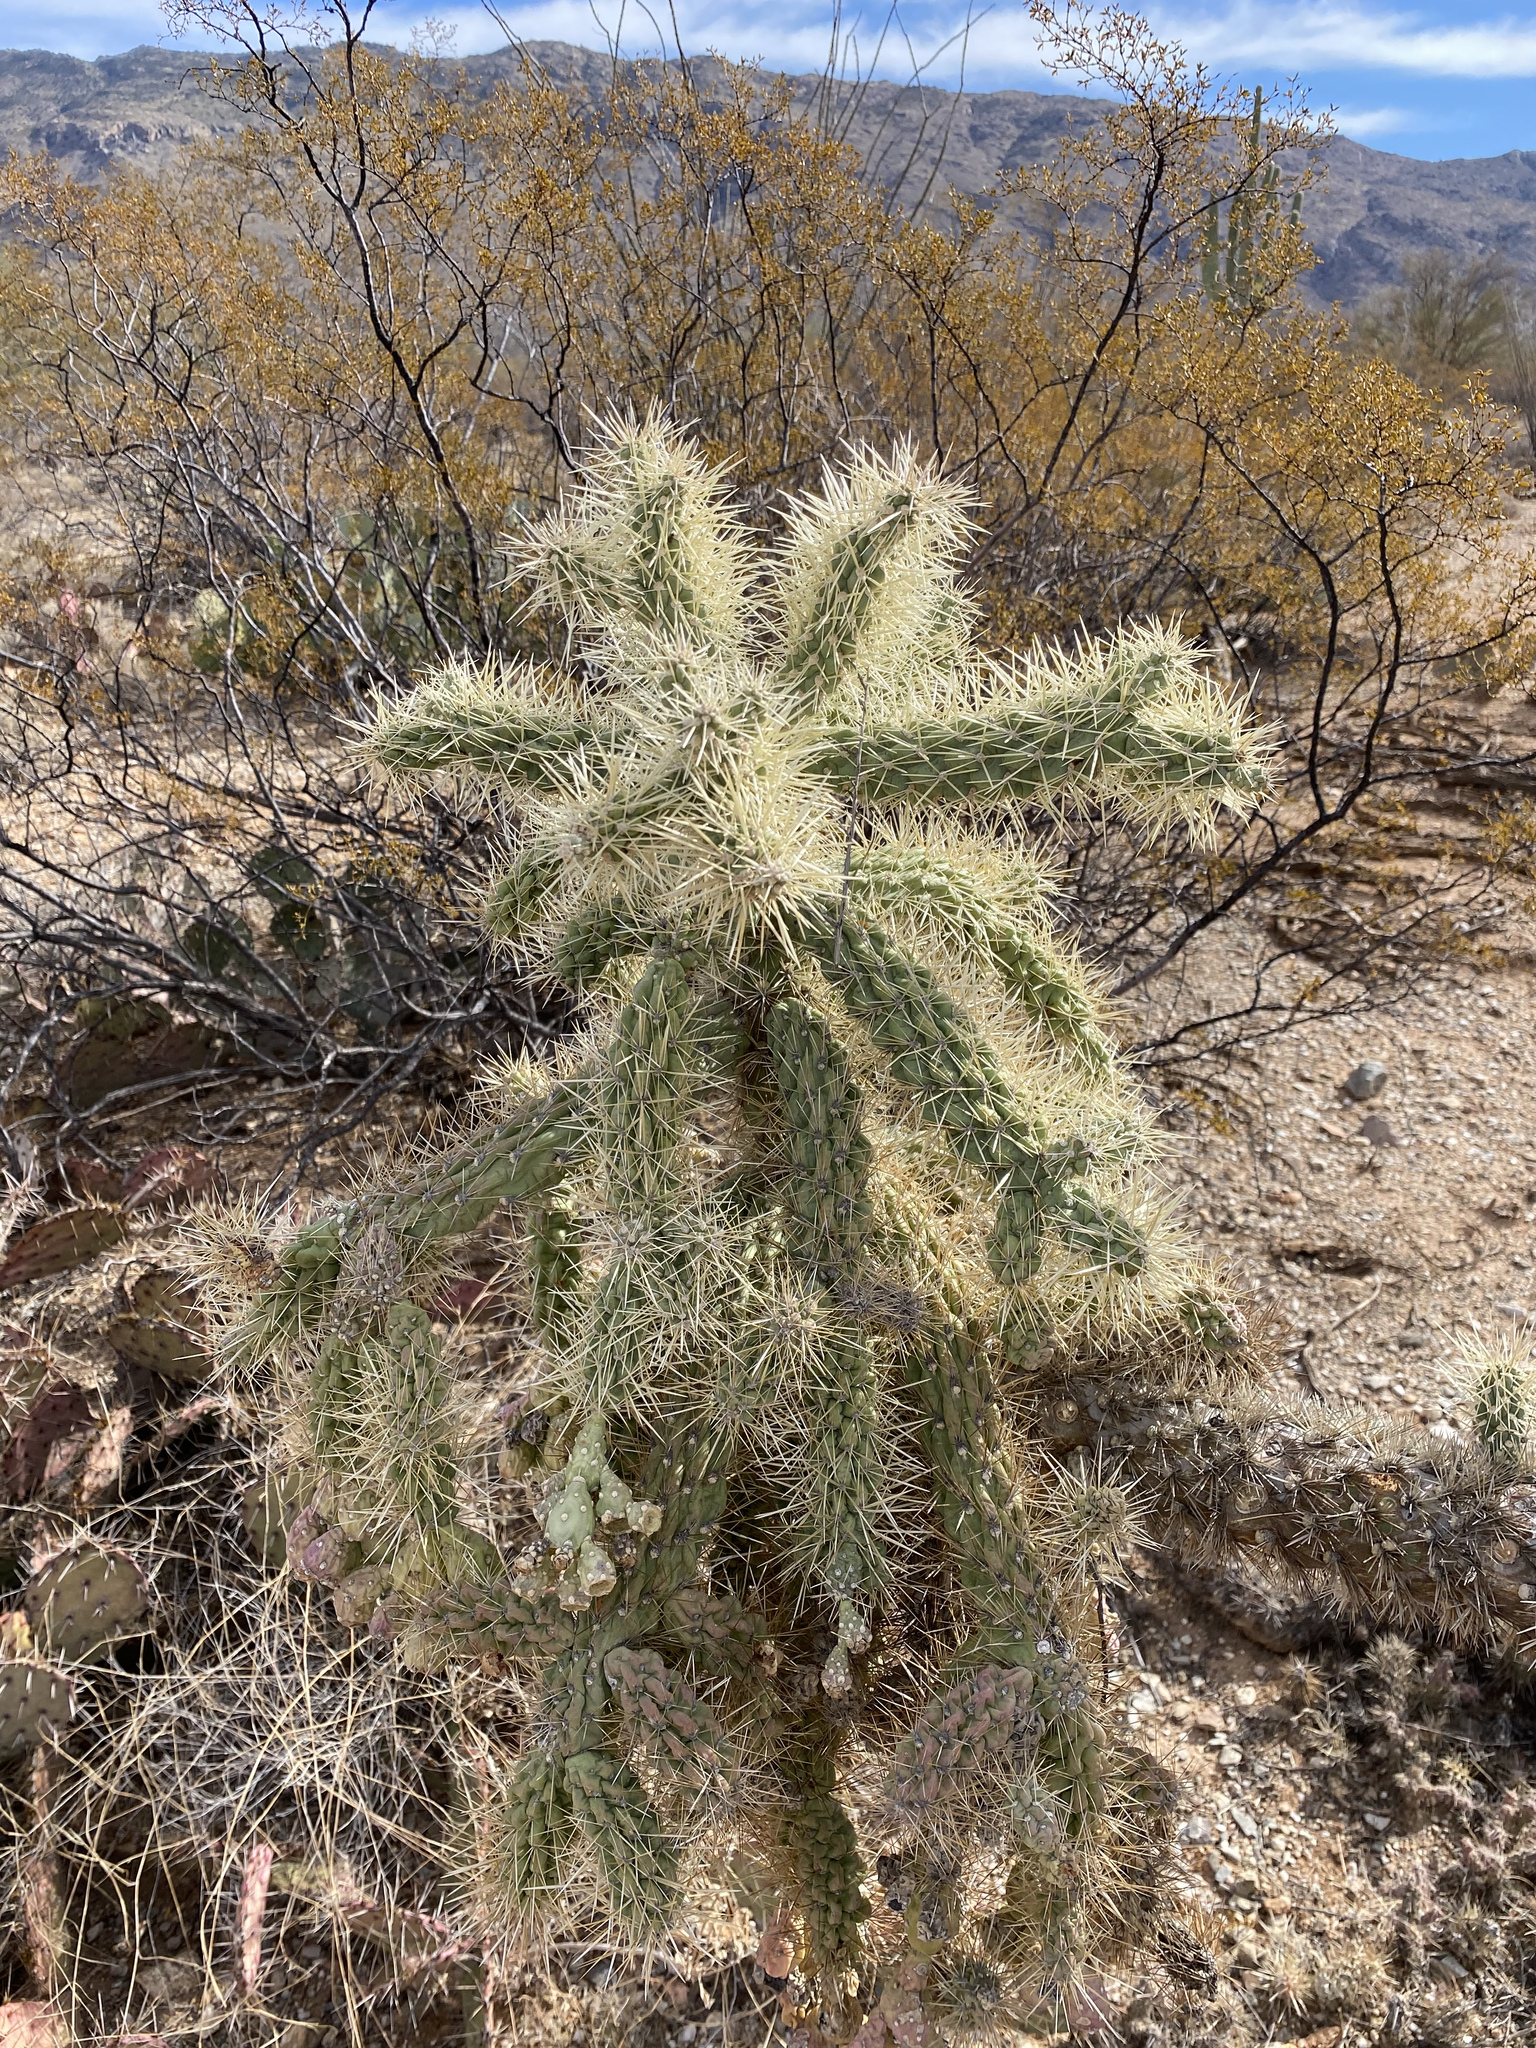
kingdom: Plantae
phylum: Tracheophyta
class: Magnoliopsida
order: Caryophyllales
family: Cactaceae
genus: Cylindropuntia
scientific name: Cylindropuntia fulgida
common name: Jumping cholla
